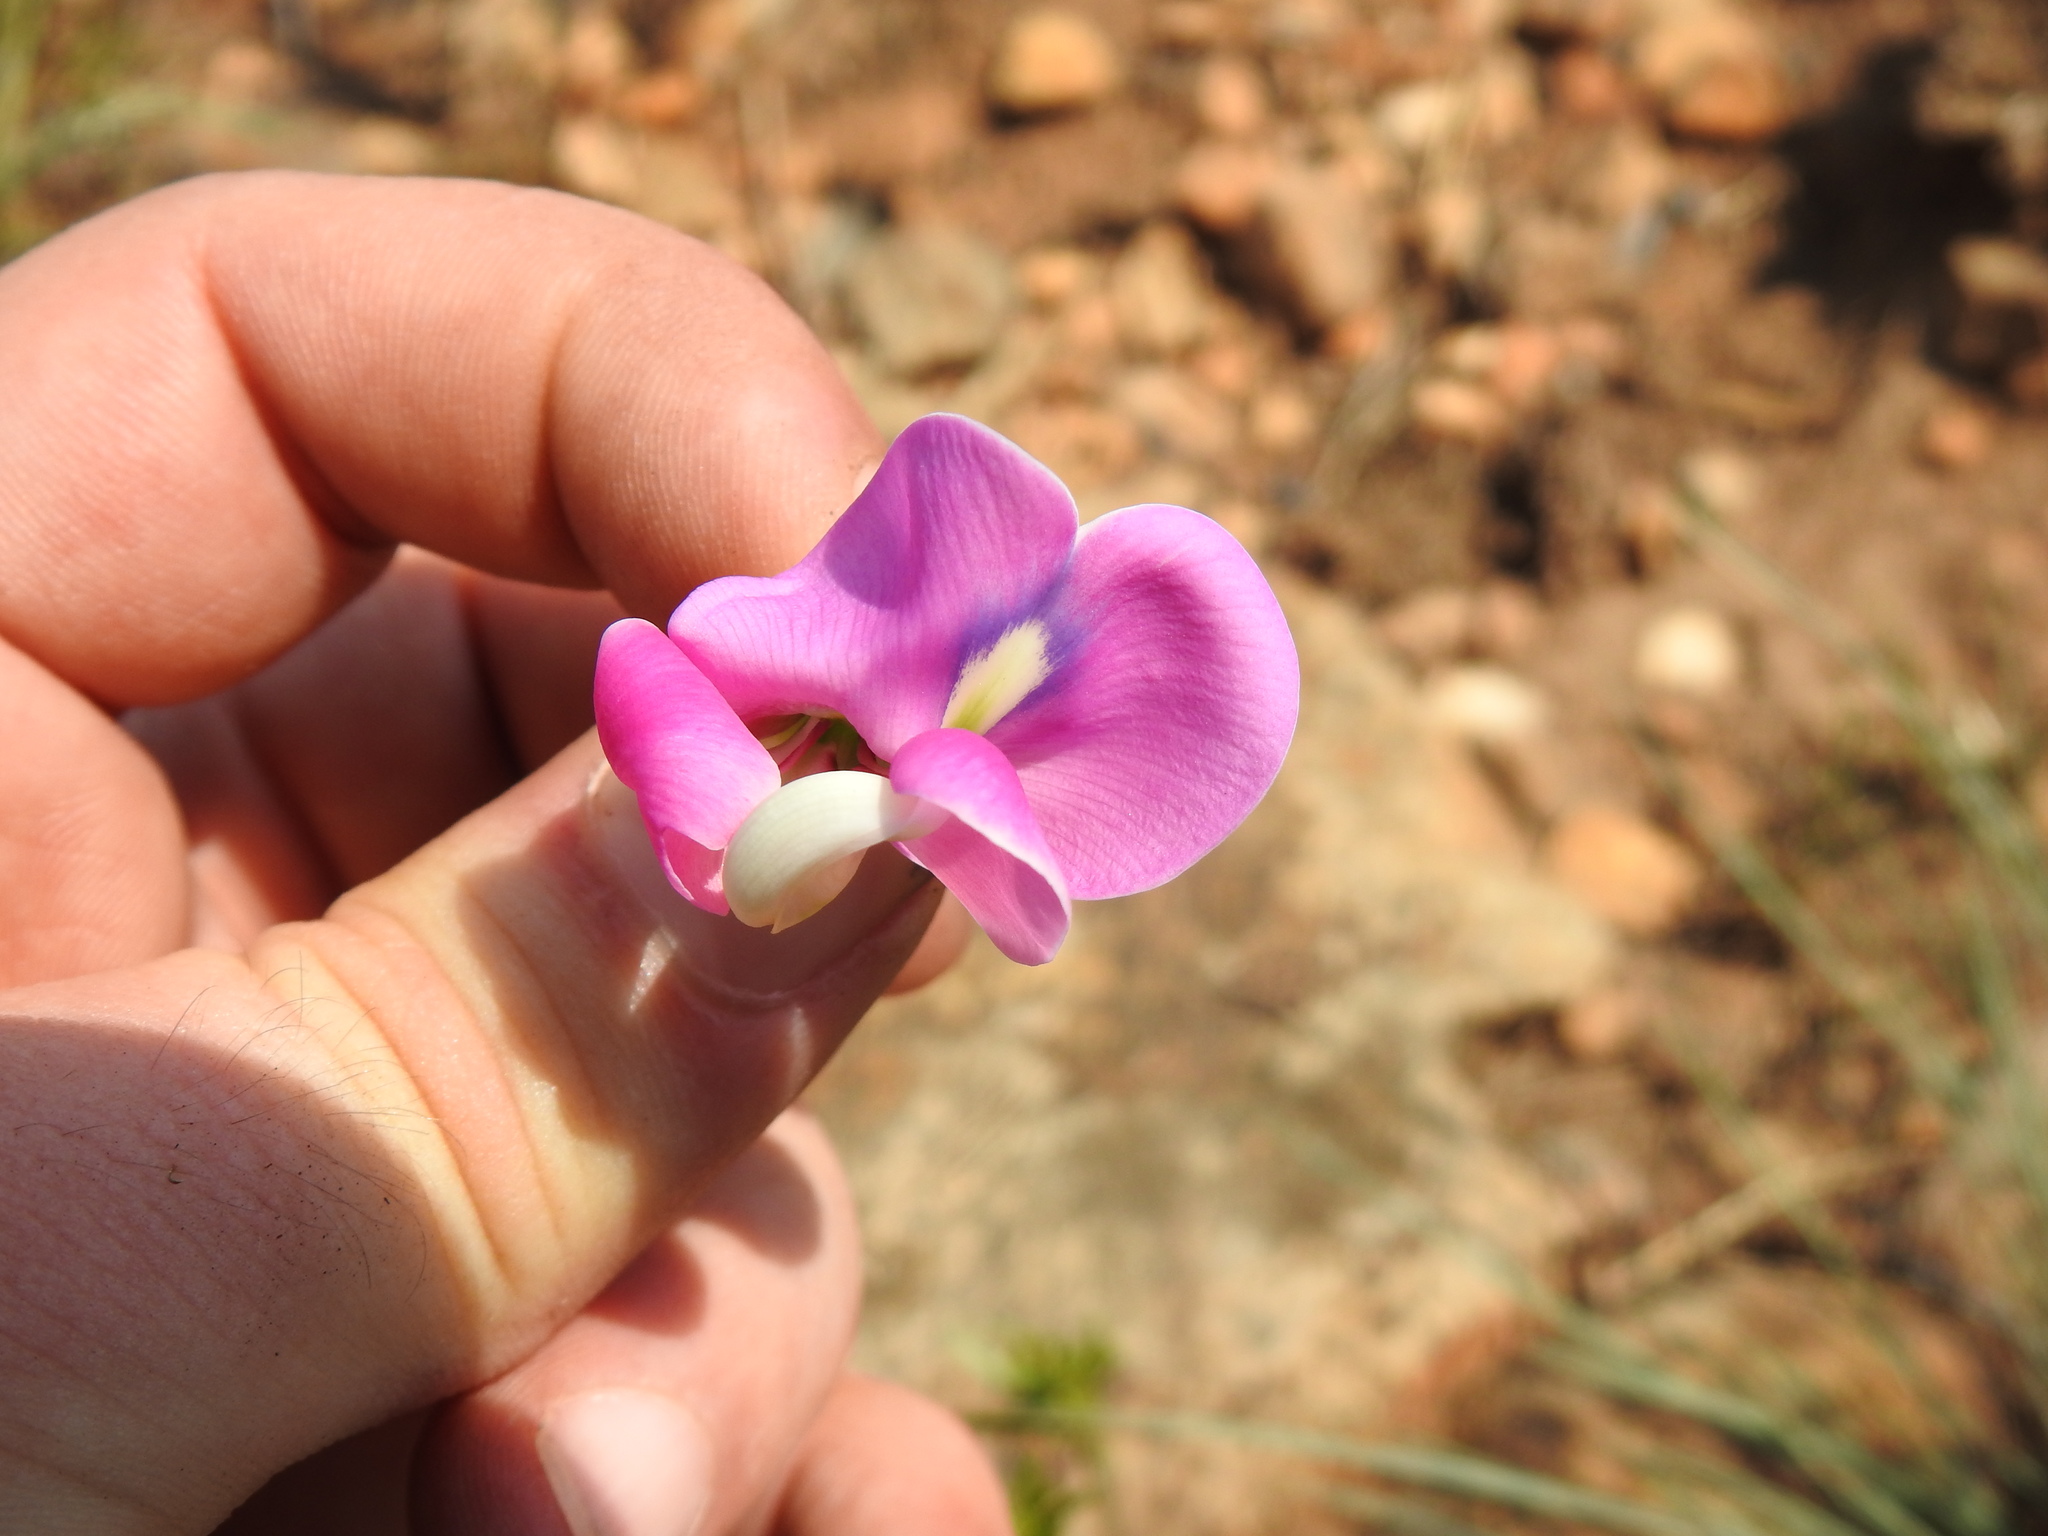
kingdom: Plantae
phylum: Tracheophyta
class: Magnoliopsida
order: Fabales
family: Fabaceae
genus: Sphenostylis
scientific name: Sphenostylis angustifolia
